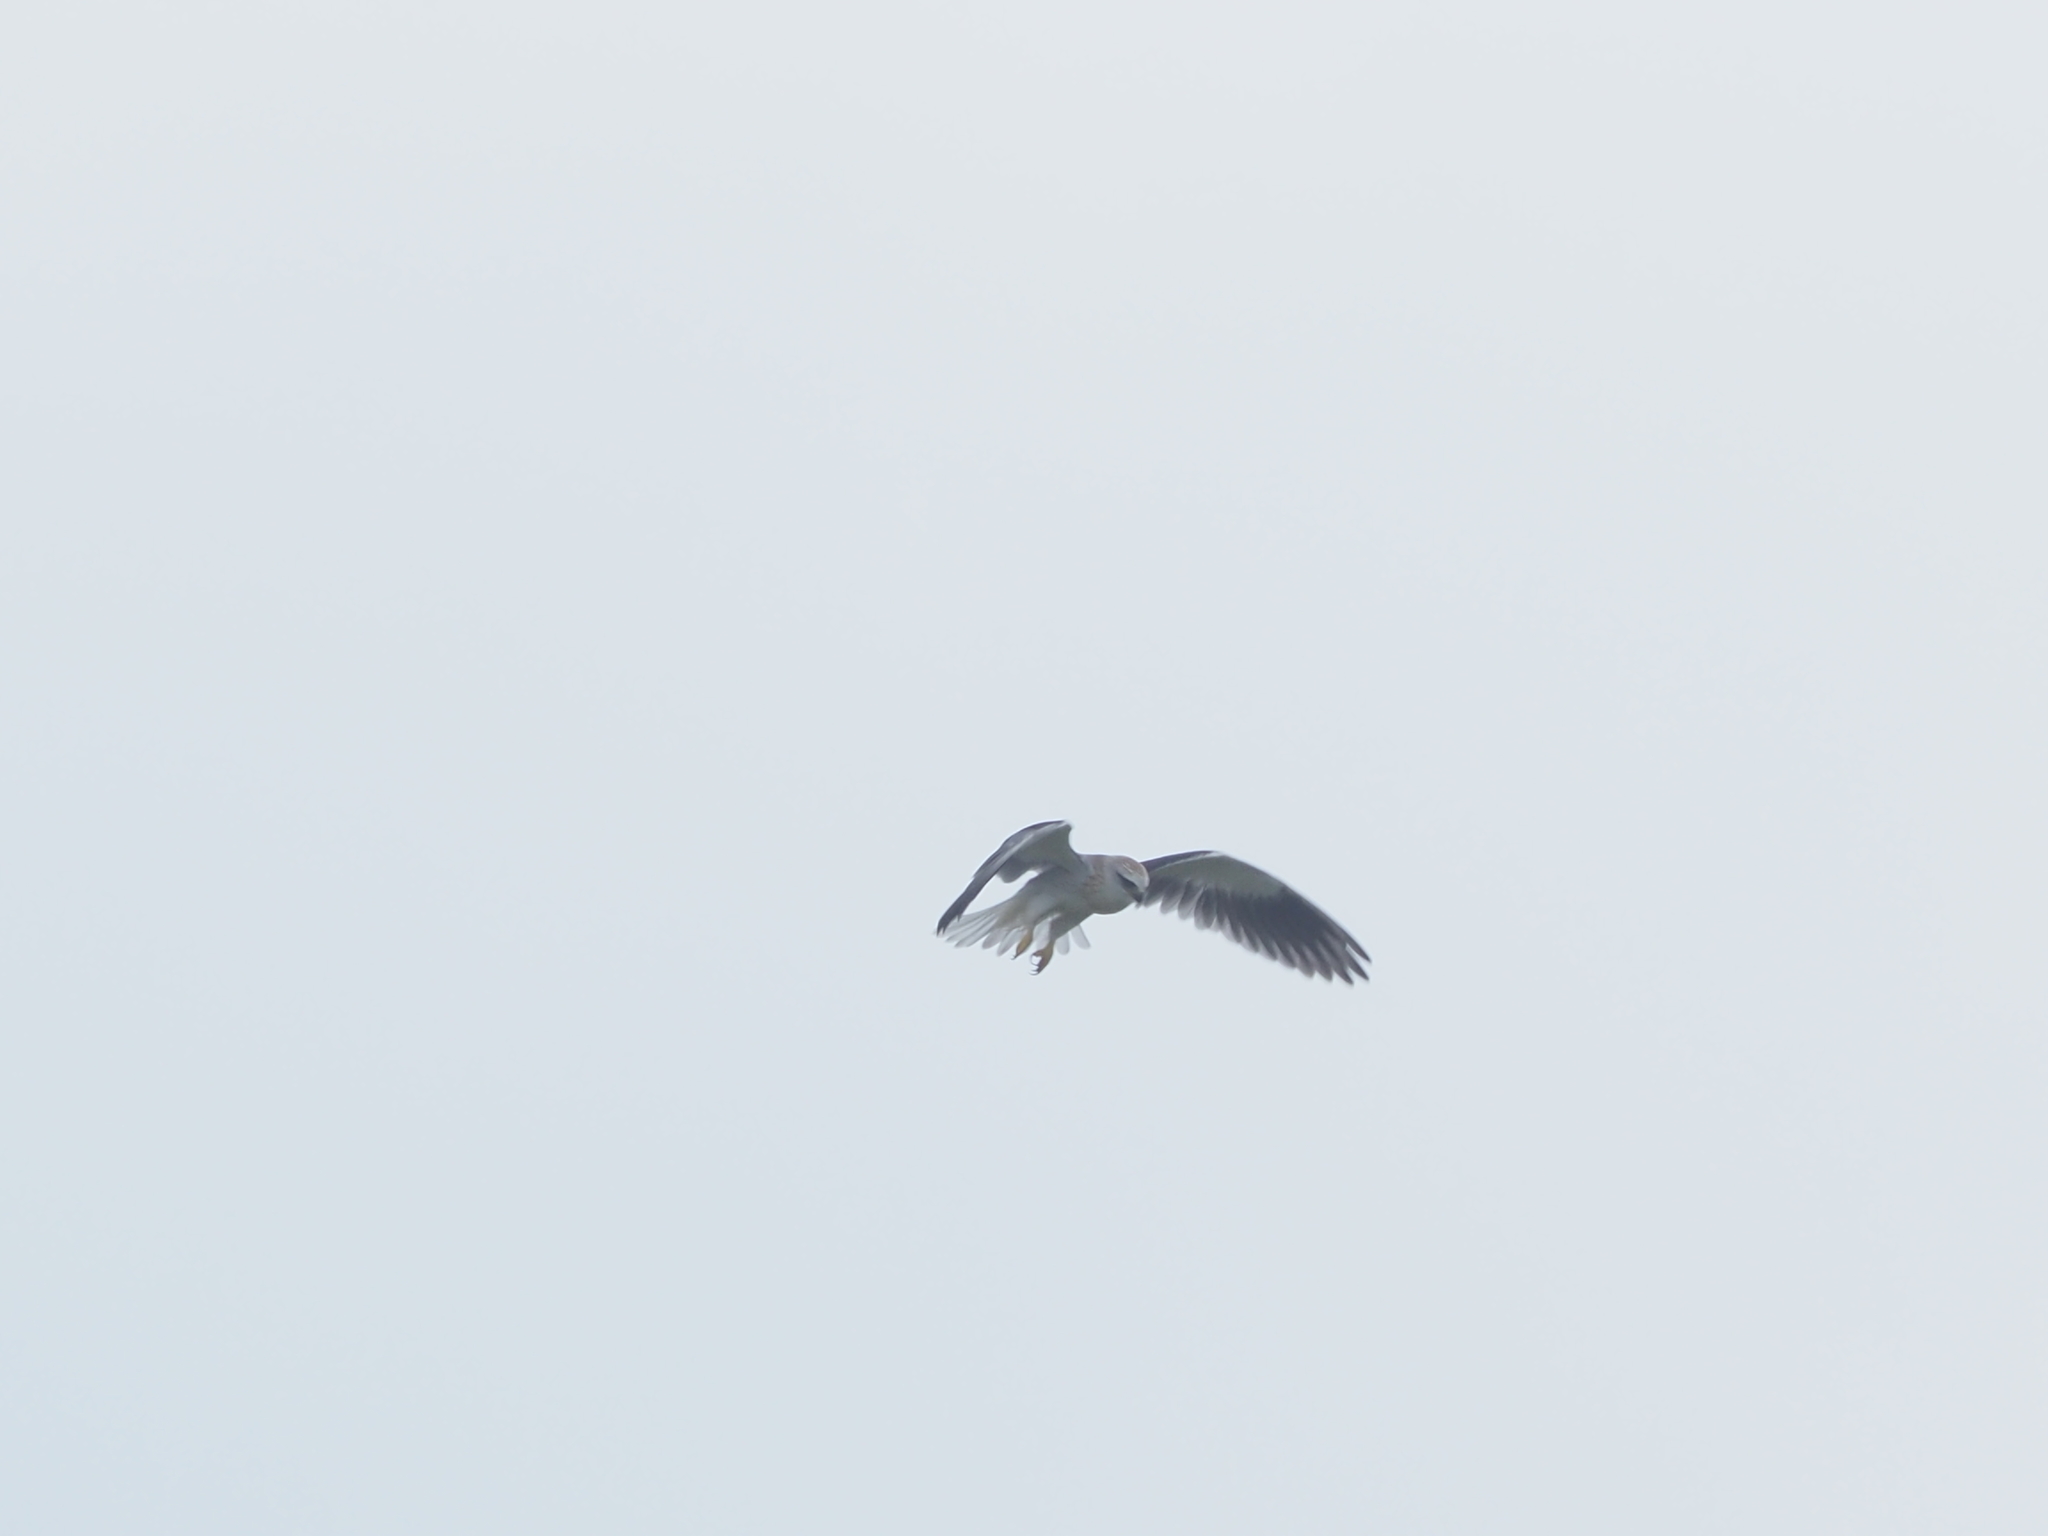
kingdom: Animalia
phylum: Chordata
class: Aves
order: Accipitriformes
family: Accipitridae
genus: Elanus
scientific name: Elanus caeruleus
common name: Black-winged kite
